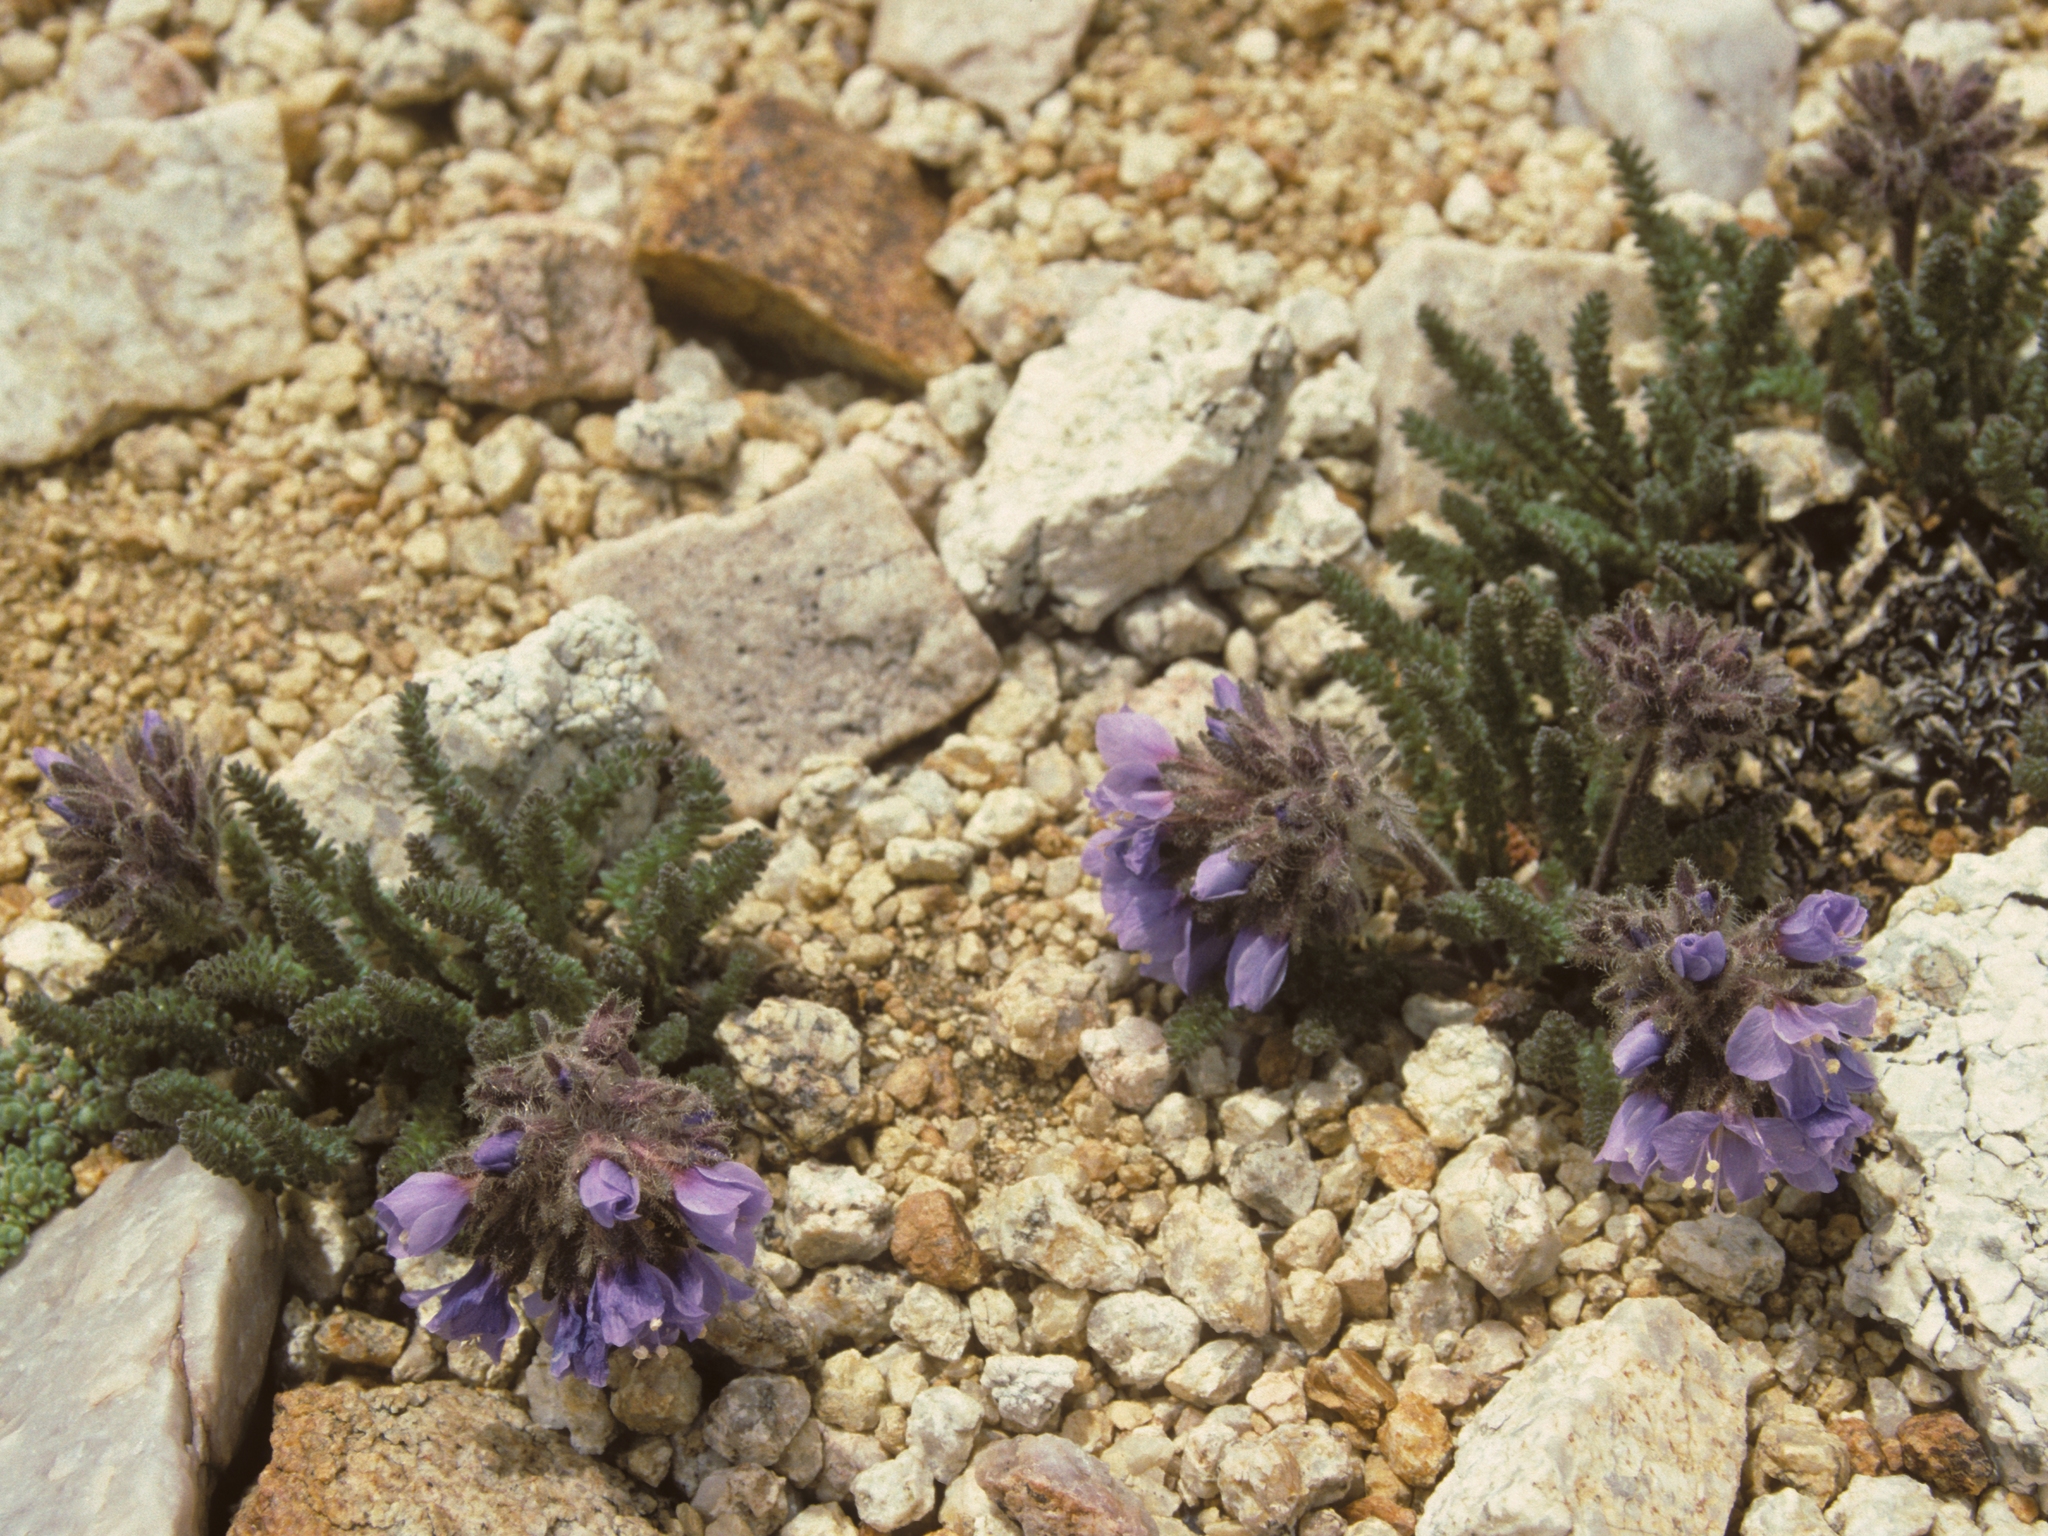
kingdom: Plantae
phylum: Tracheophyta
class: Magnoliopsida
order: Ericales
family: Polemoniaceae
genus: Polemonium
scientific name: Polemonium chartaceum
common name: Mason's sky-pilot
